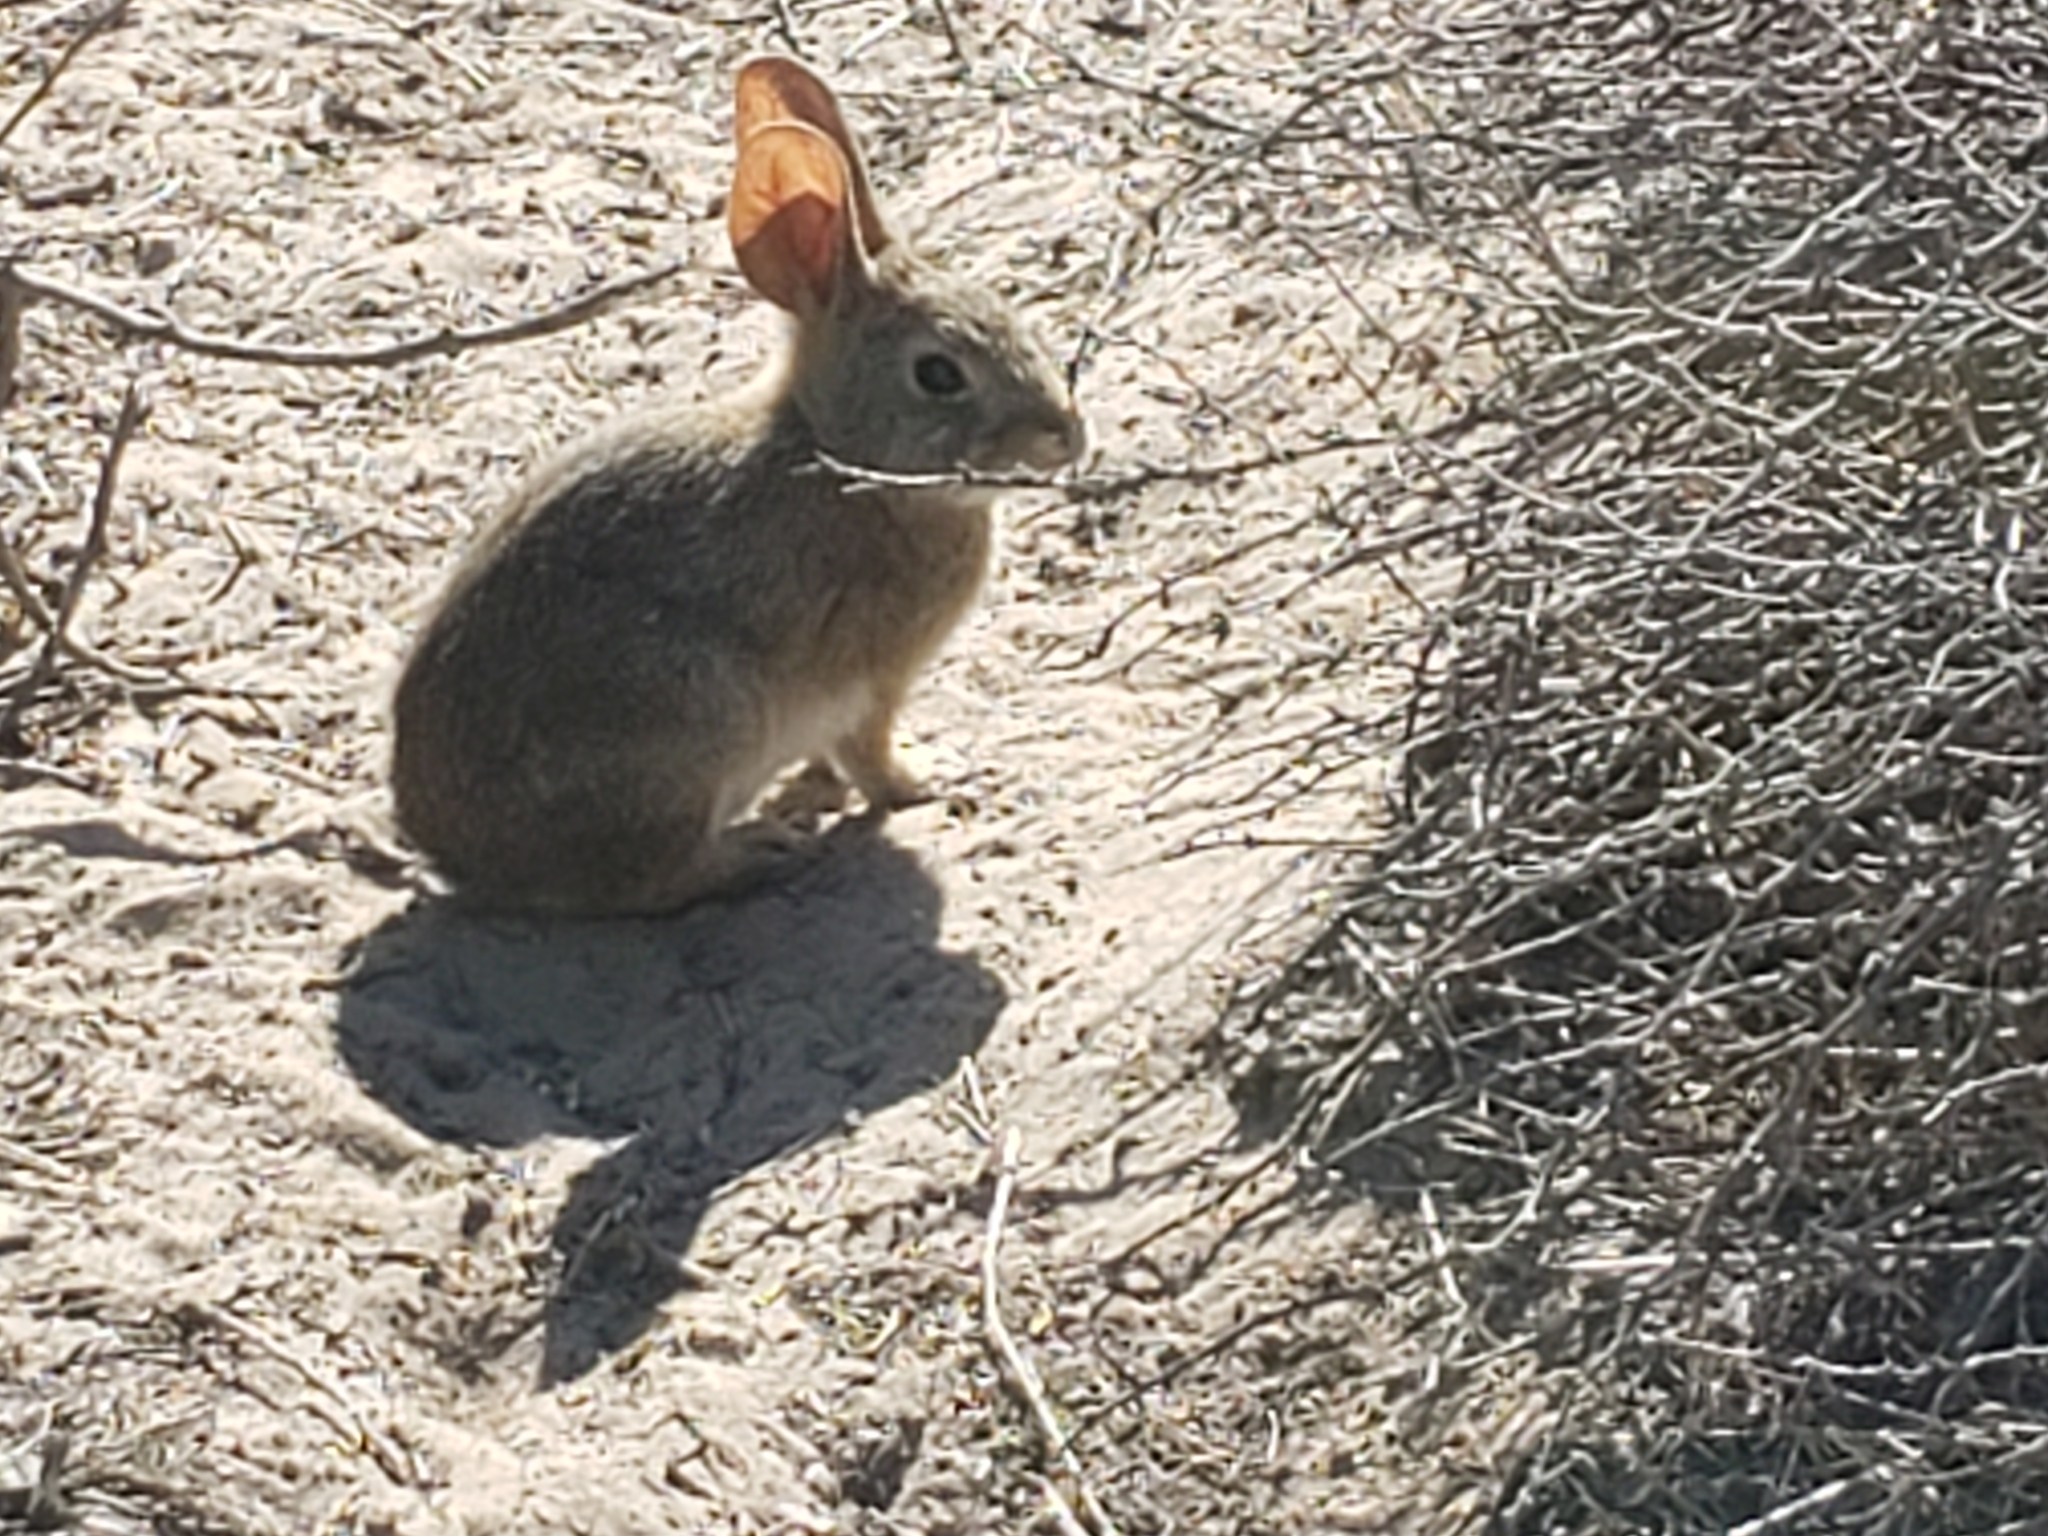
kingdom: Animalia
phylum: Chordata
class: Mammalia
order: Lagomorpha
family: Leporidae
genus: Sylvilagus
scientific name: Sylvilagus bachmani
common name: Brush rabbit
